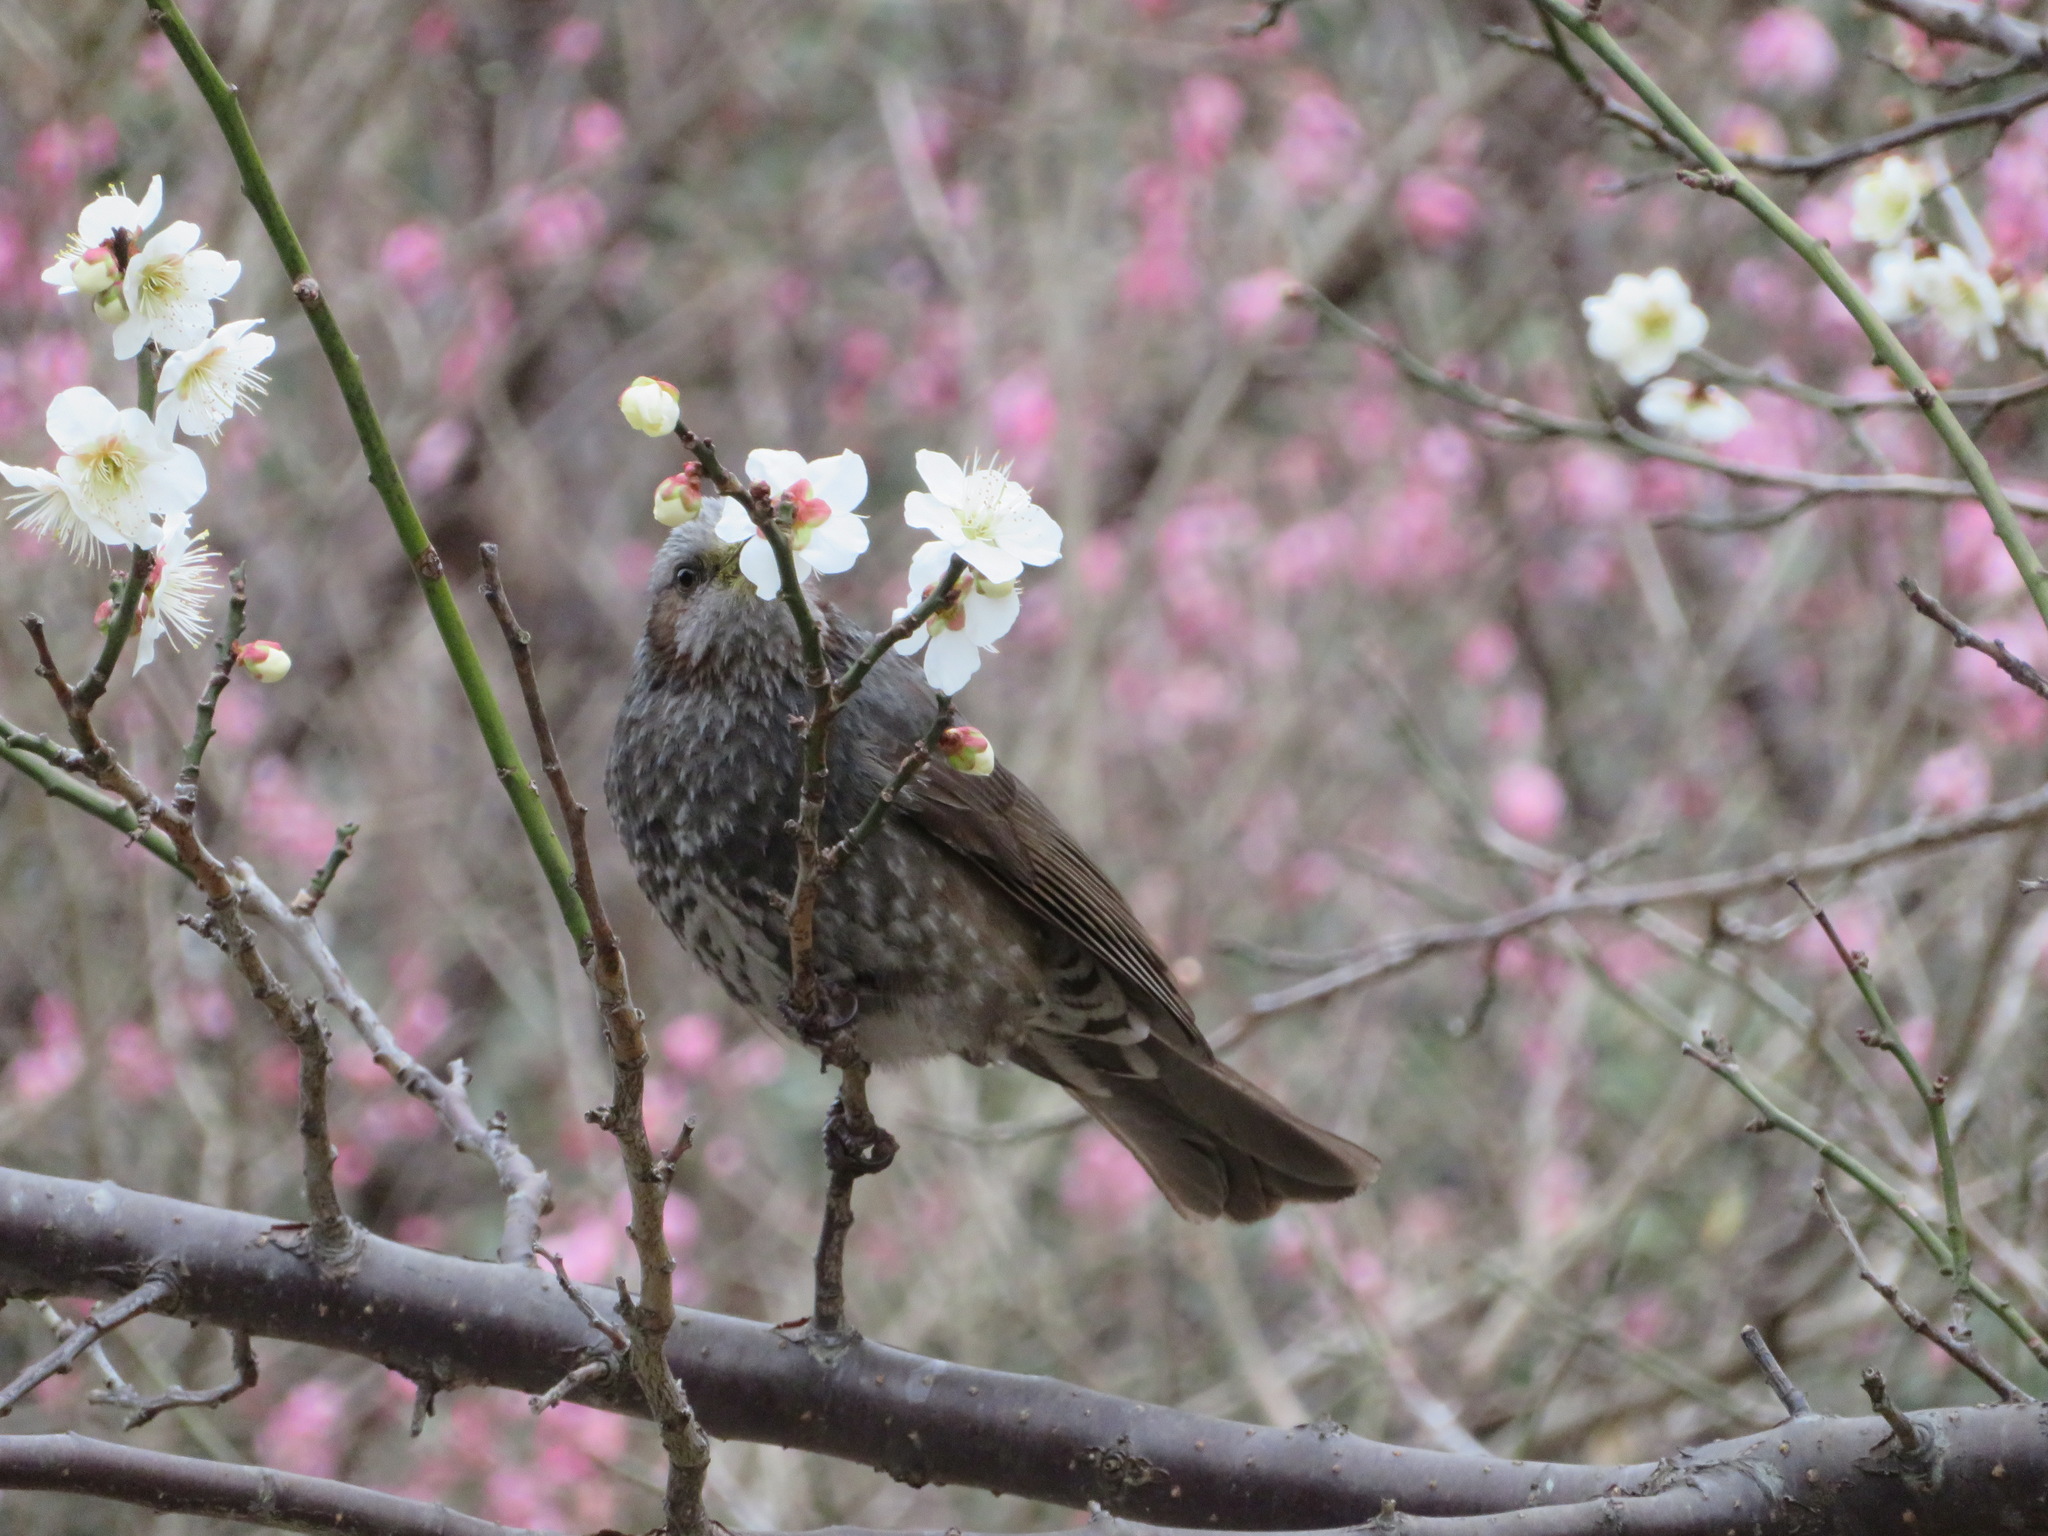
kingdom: Animalia
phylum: Chordata
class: Aves
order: Passeriformes
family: Pycnonotidae
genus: Hypsipetes
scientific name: Hypsipetes amaurotis
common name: Brown-eared bulbul
